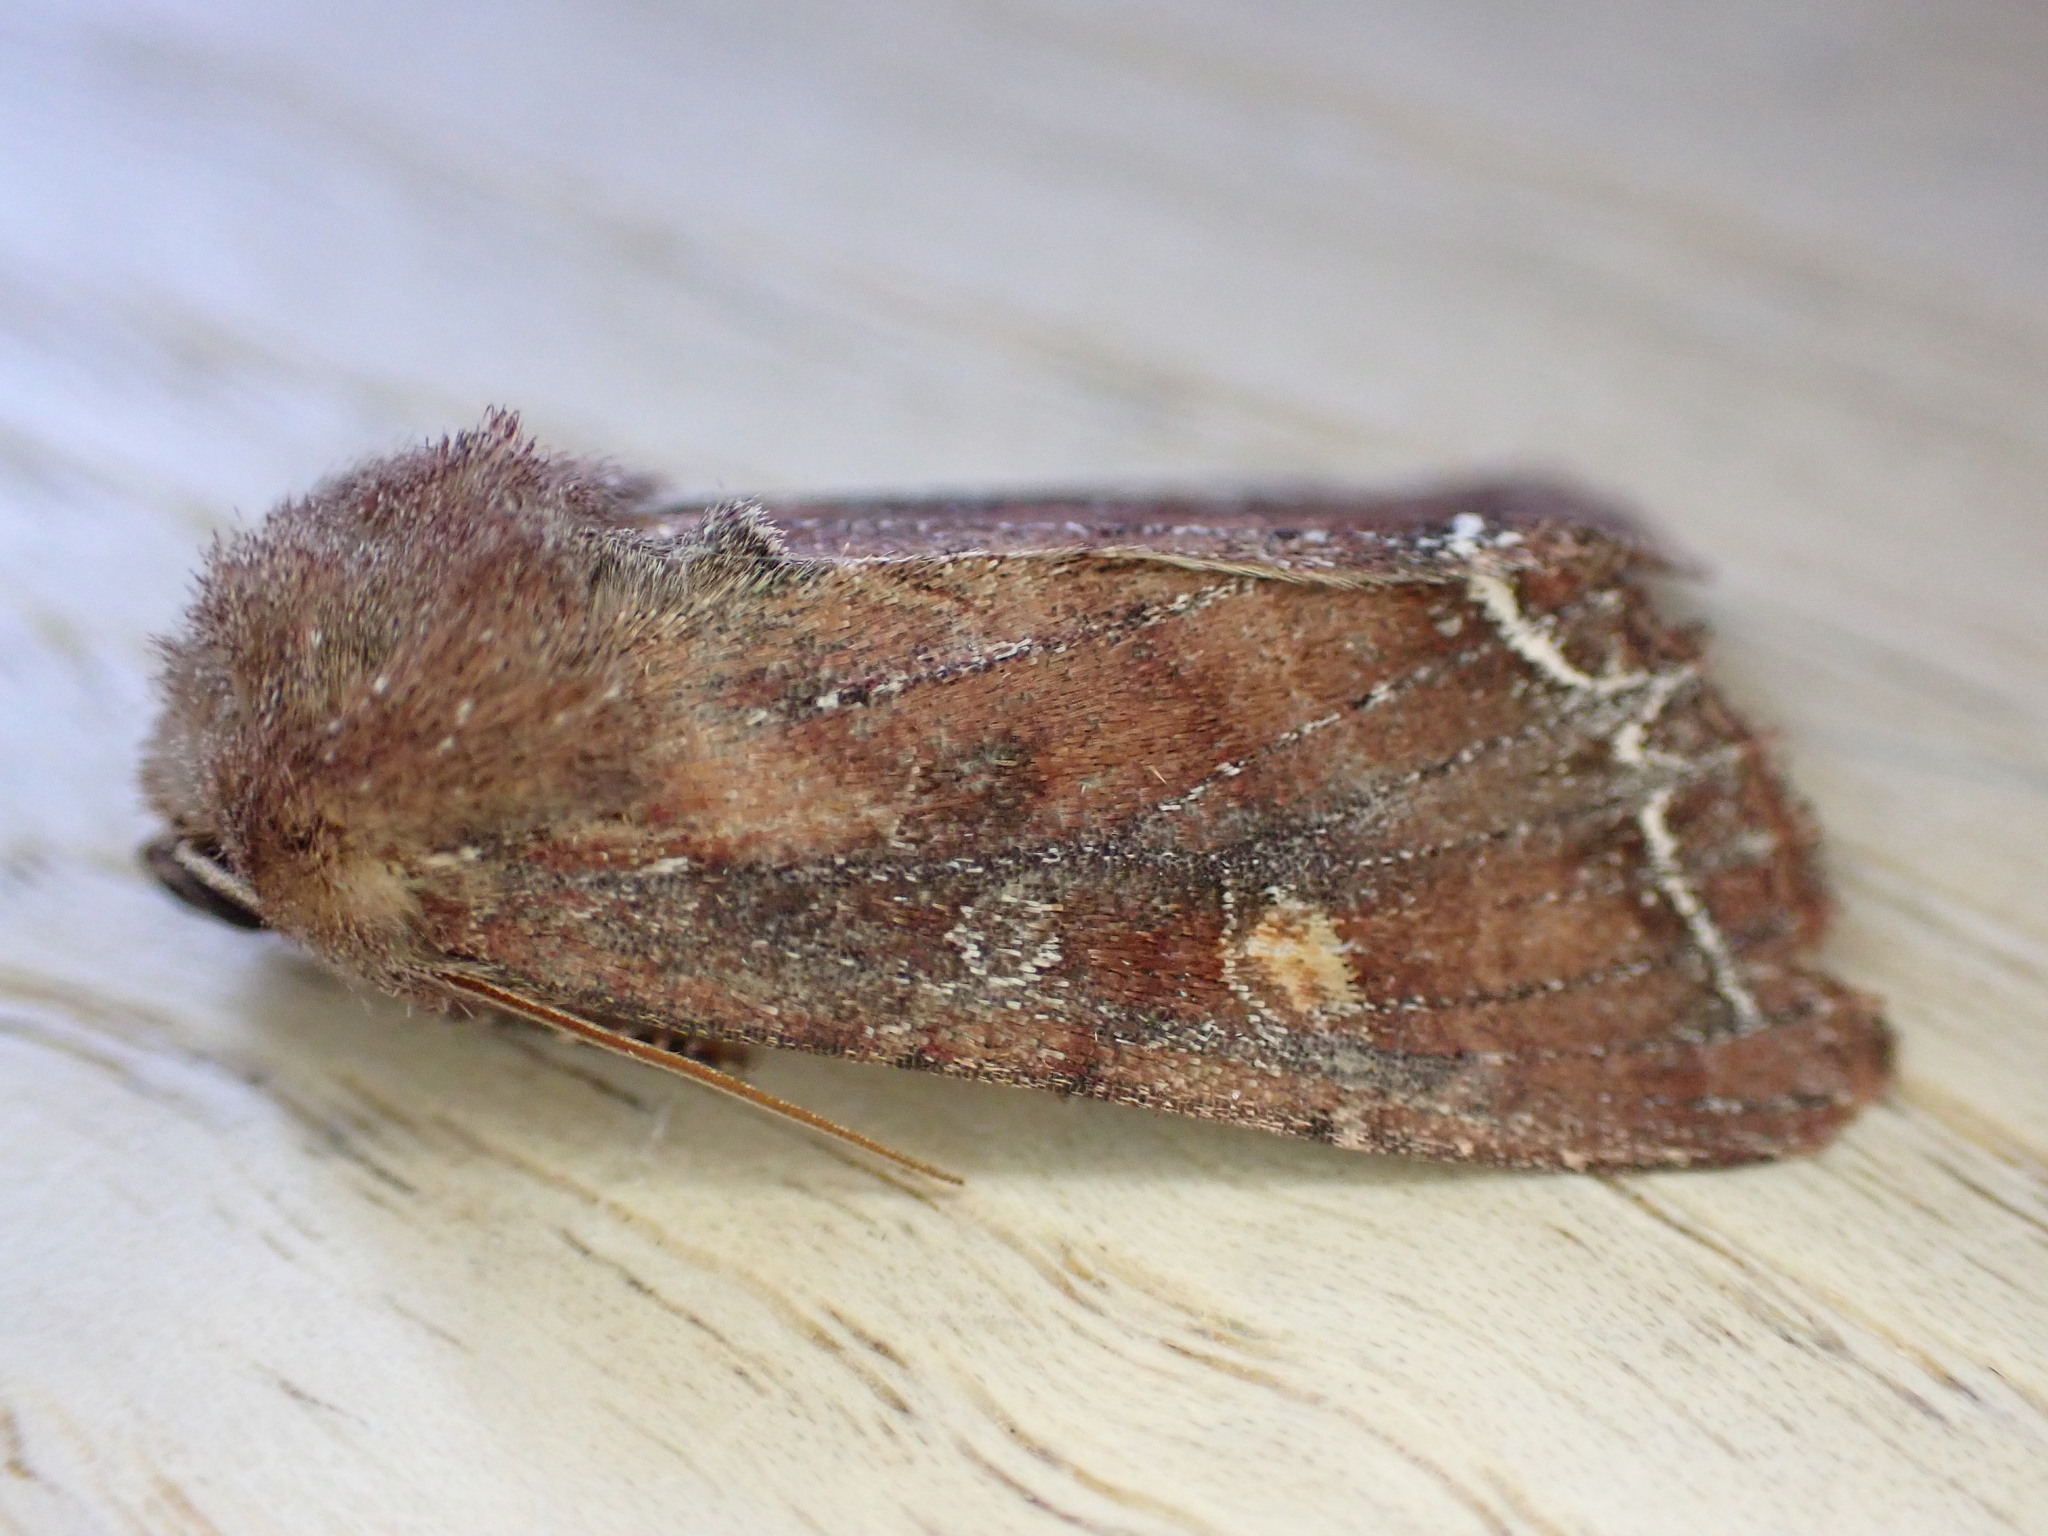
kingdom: Animalia
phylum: Arthropoda
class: Insecta
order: Lepidoptera
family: Noctuidae
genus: Lacanobia
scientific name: Lacanobia oleracea
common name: Bright-line brown-eye
